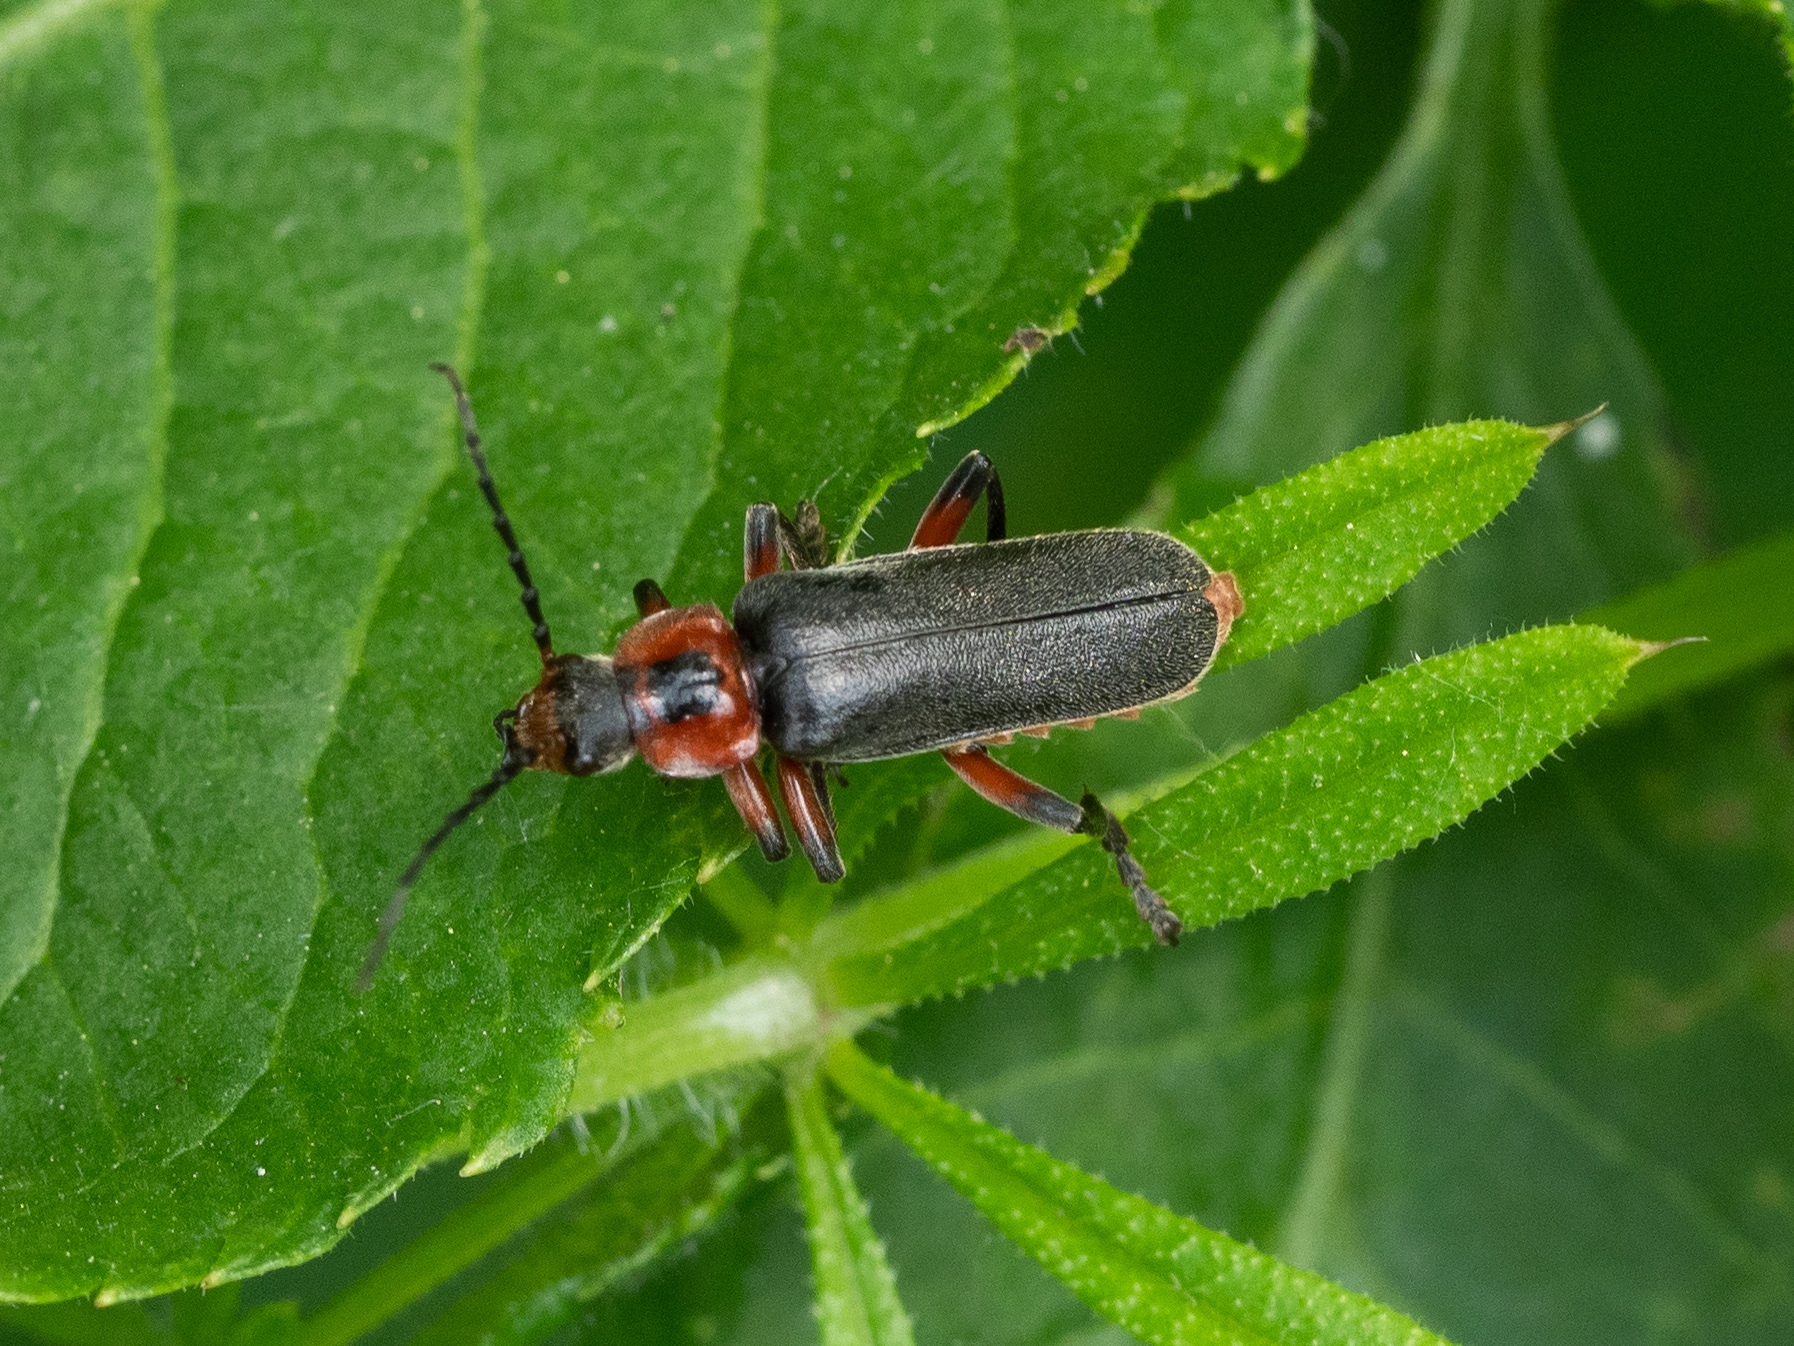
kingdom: Animalia
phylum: Arthropoda
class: Insecta
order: Coleoptera
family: Cantharidae
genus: Cantharis
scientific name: Cantharis rustica
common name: Soldier beetle
